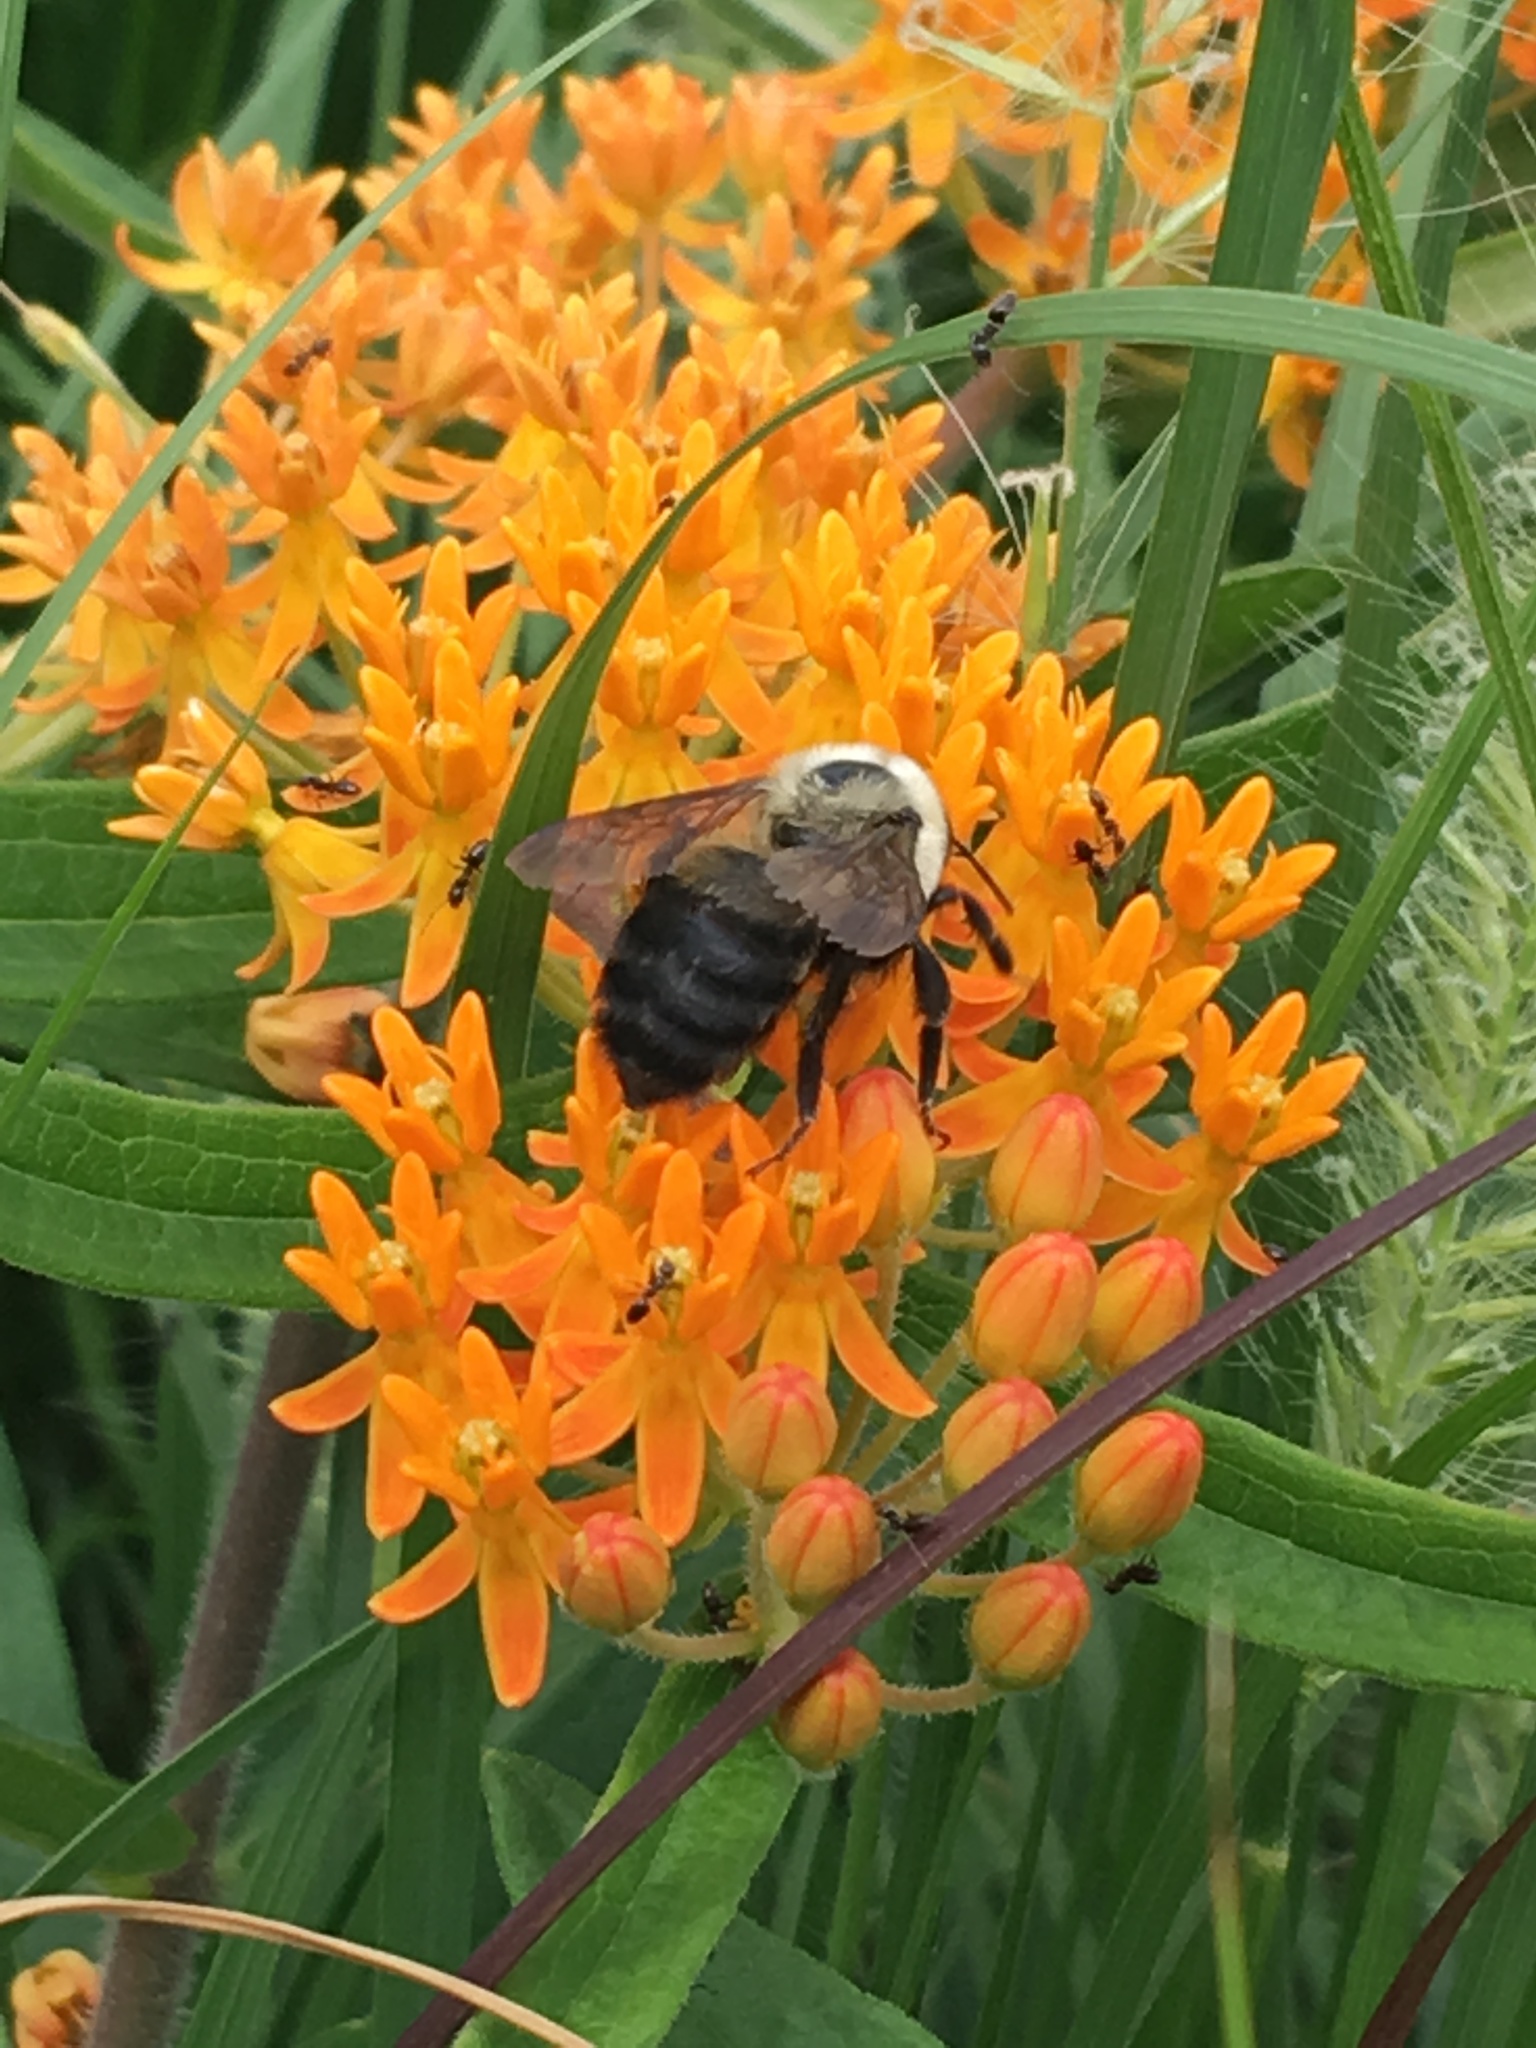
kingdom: Animalia
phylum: Arthropoda
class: Insecta
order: Hymenoptera
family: Apidae
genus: Bombus
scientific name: Bombus griseocollis
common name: Brown-belted bumble bee
